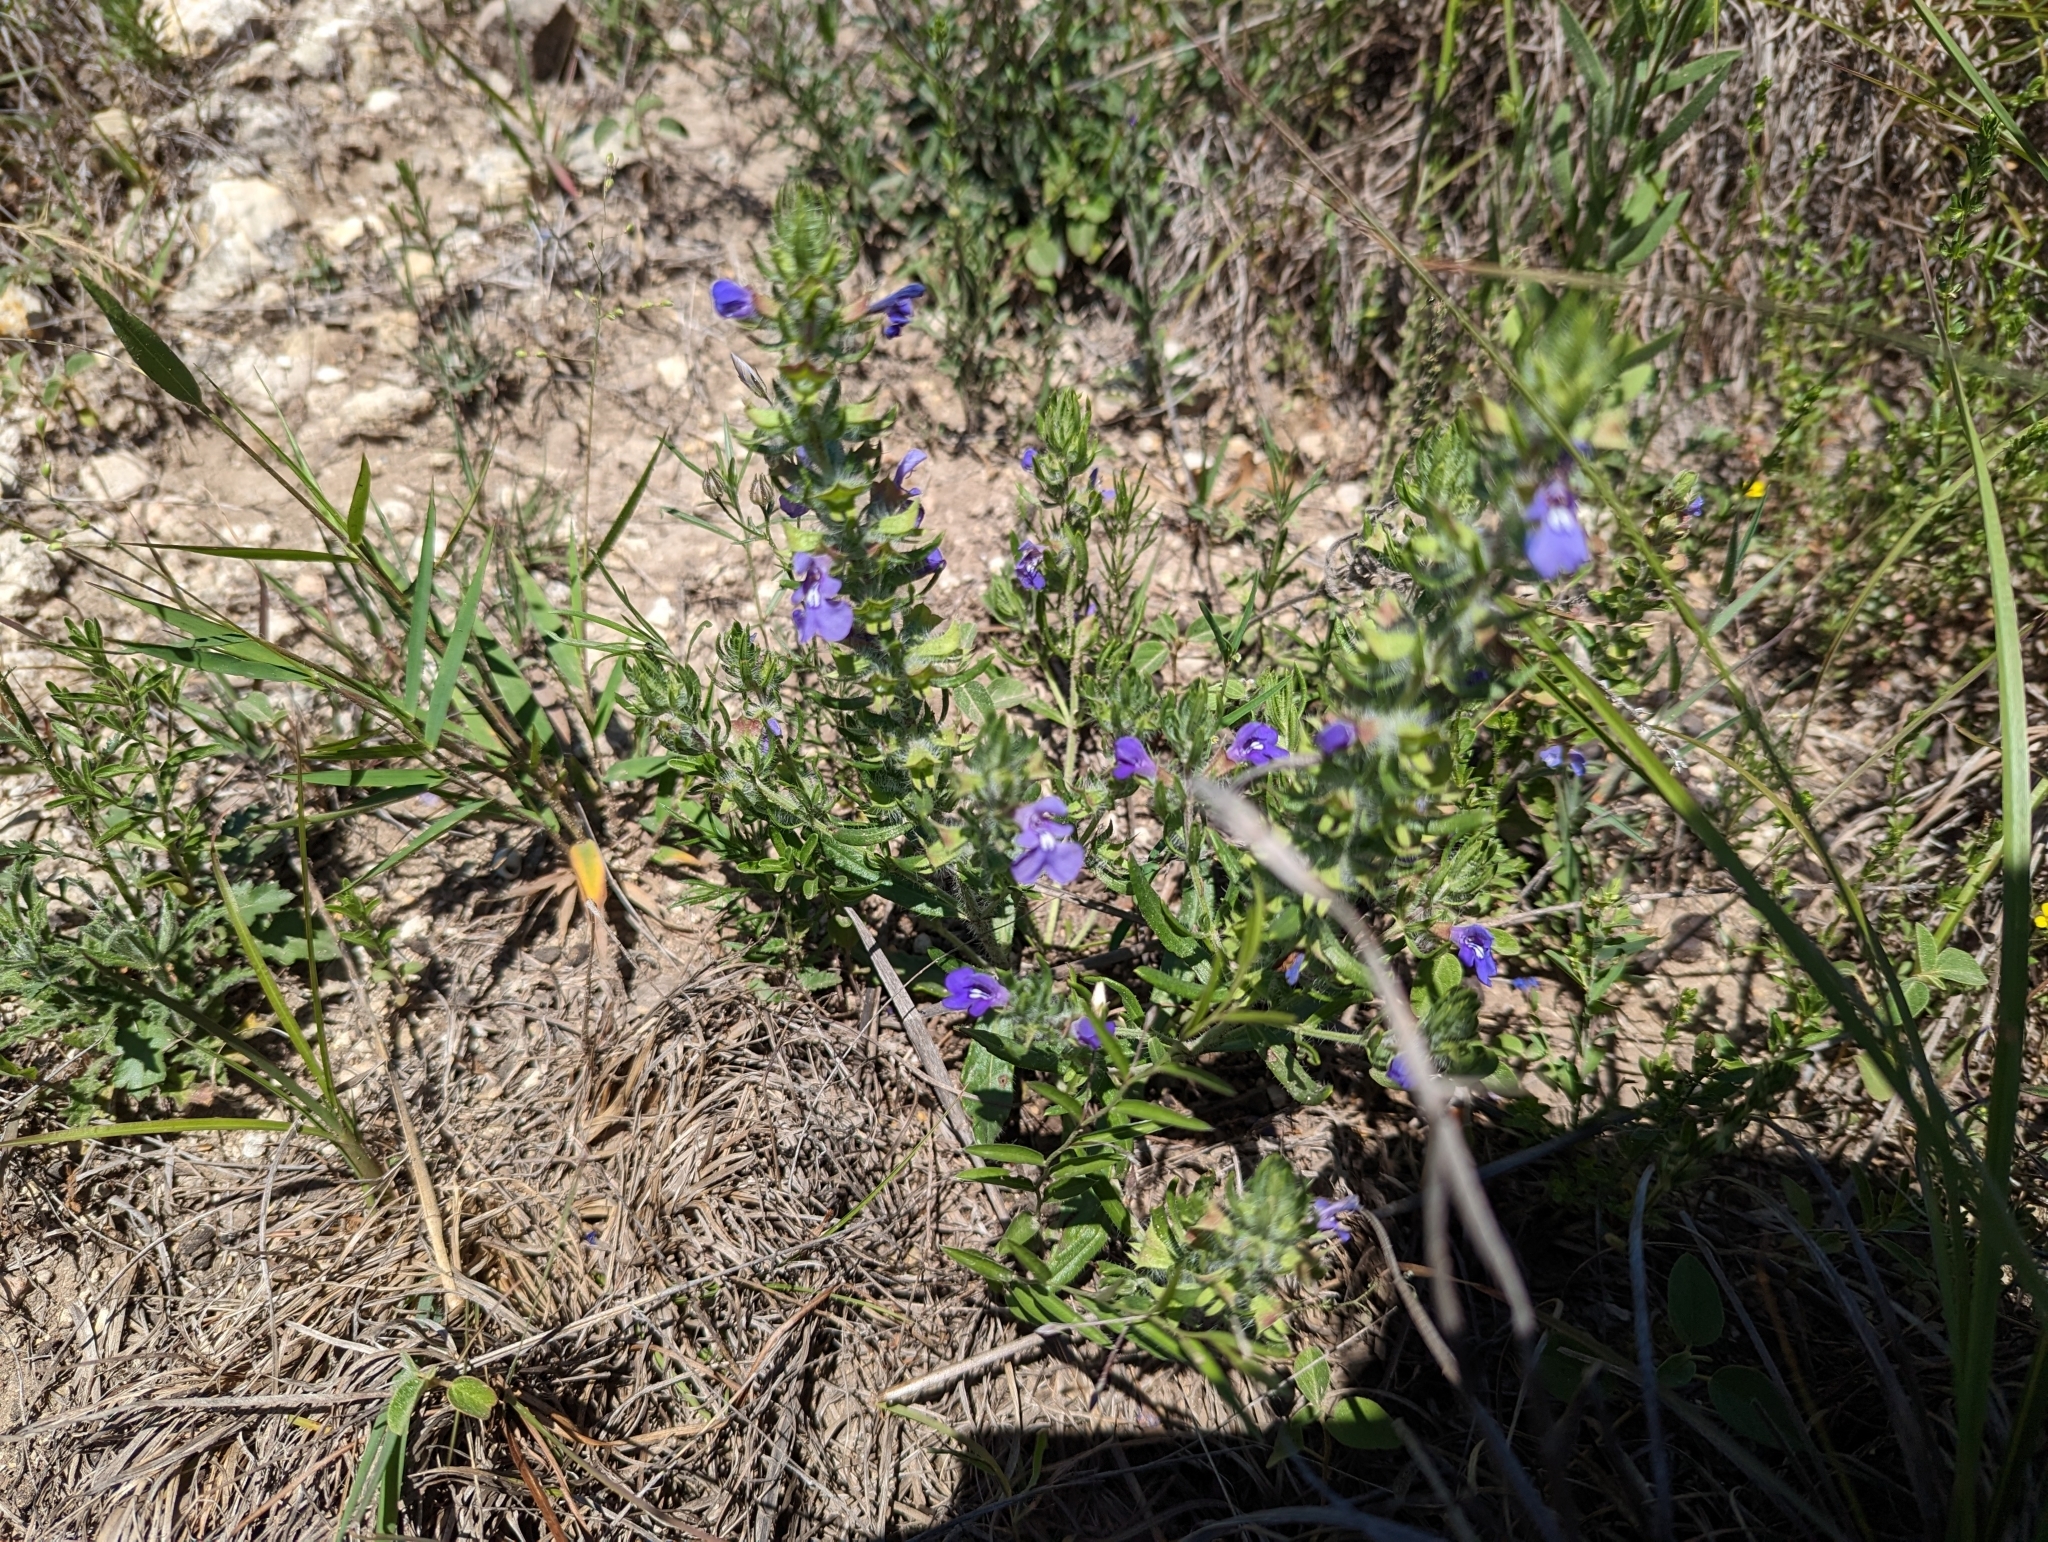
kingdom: Plantae
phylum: Tracheophyta
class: Magnoliopsida
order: Lamiales
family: Lamiaceae
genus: Salvia
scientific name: Salvia texana
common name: Texas sage
